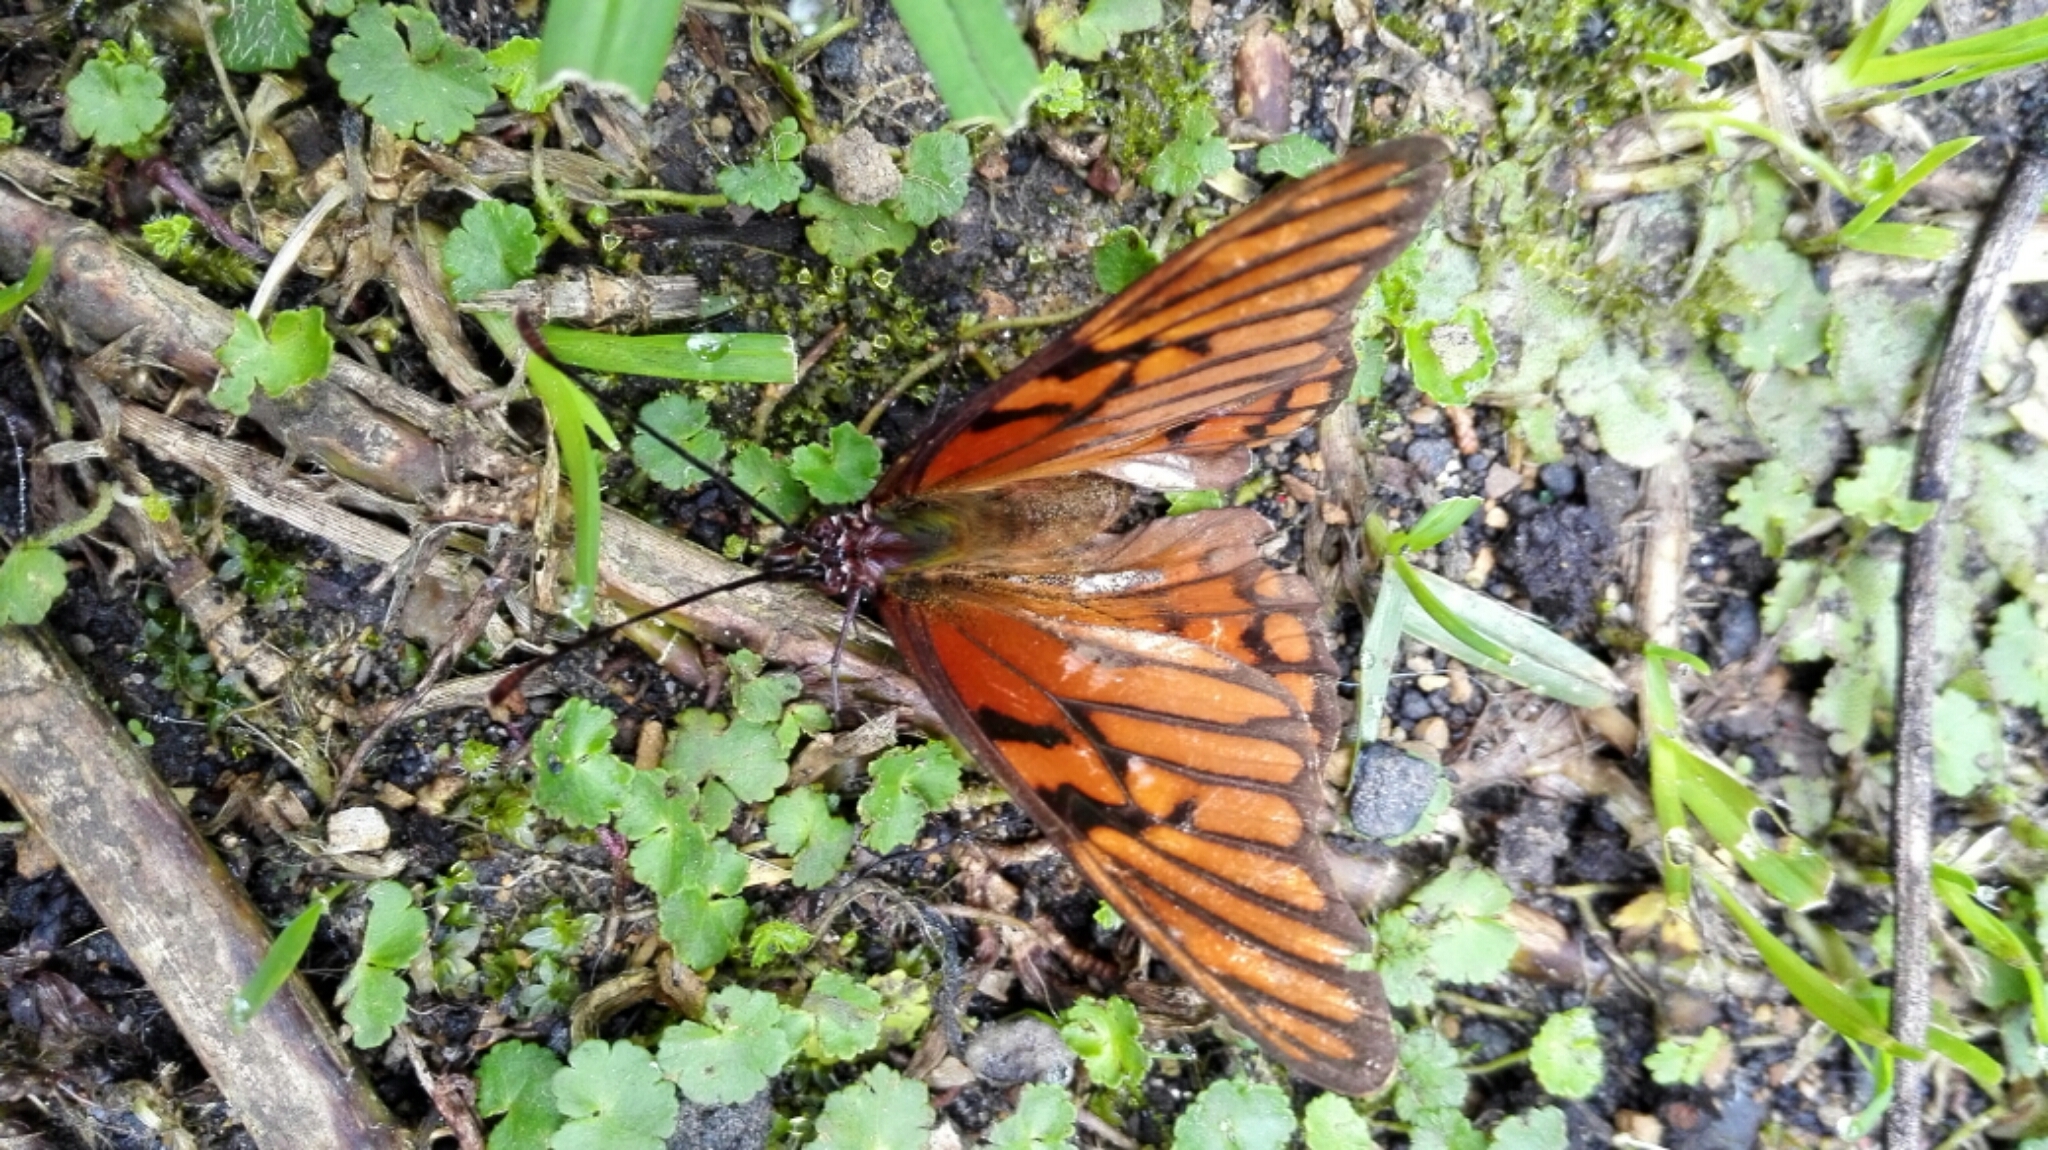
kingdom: Animalia
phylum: Arthropoda
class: Insecta
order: Lepidoptera
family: Nymphalidae
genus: Dione
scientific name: Dione glycera
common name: Andean silverspot
